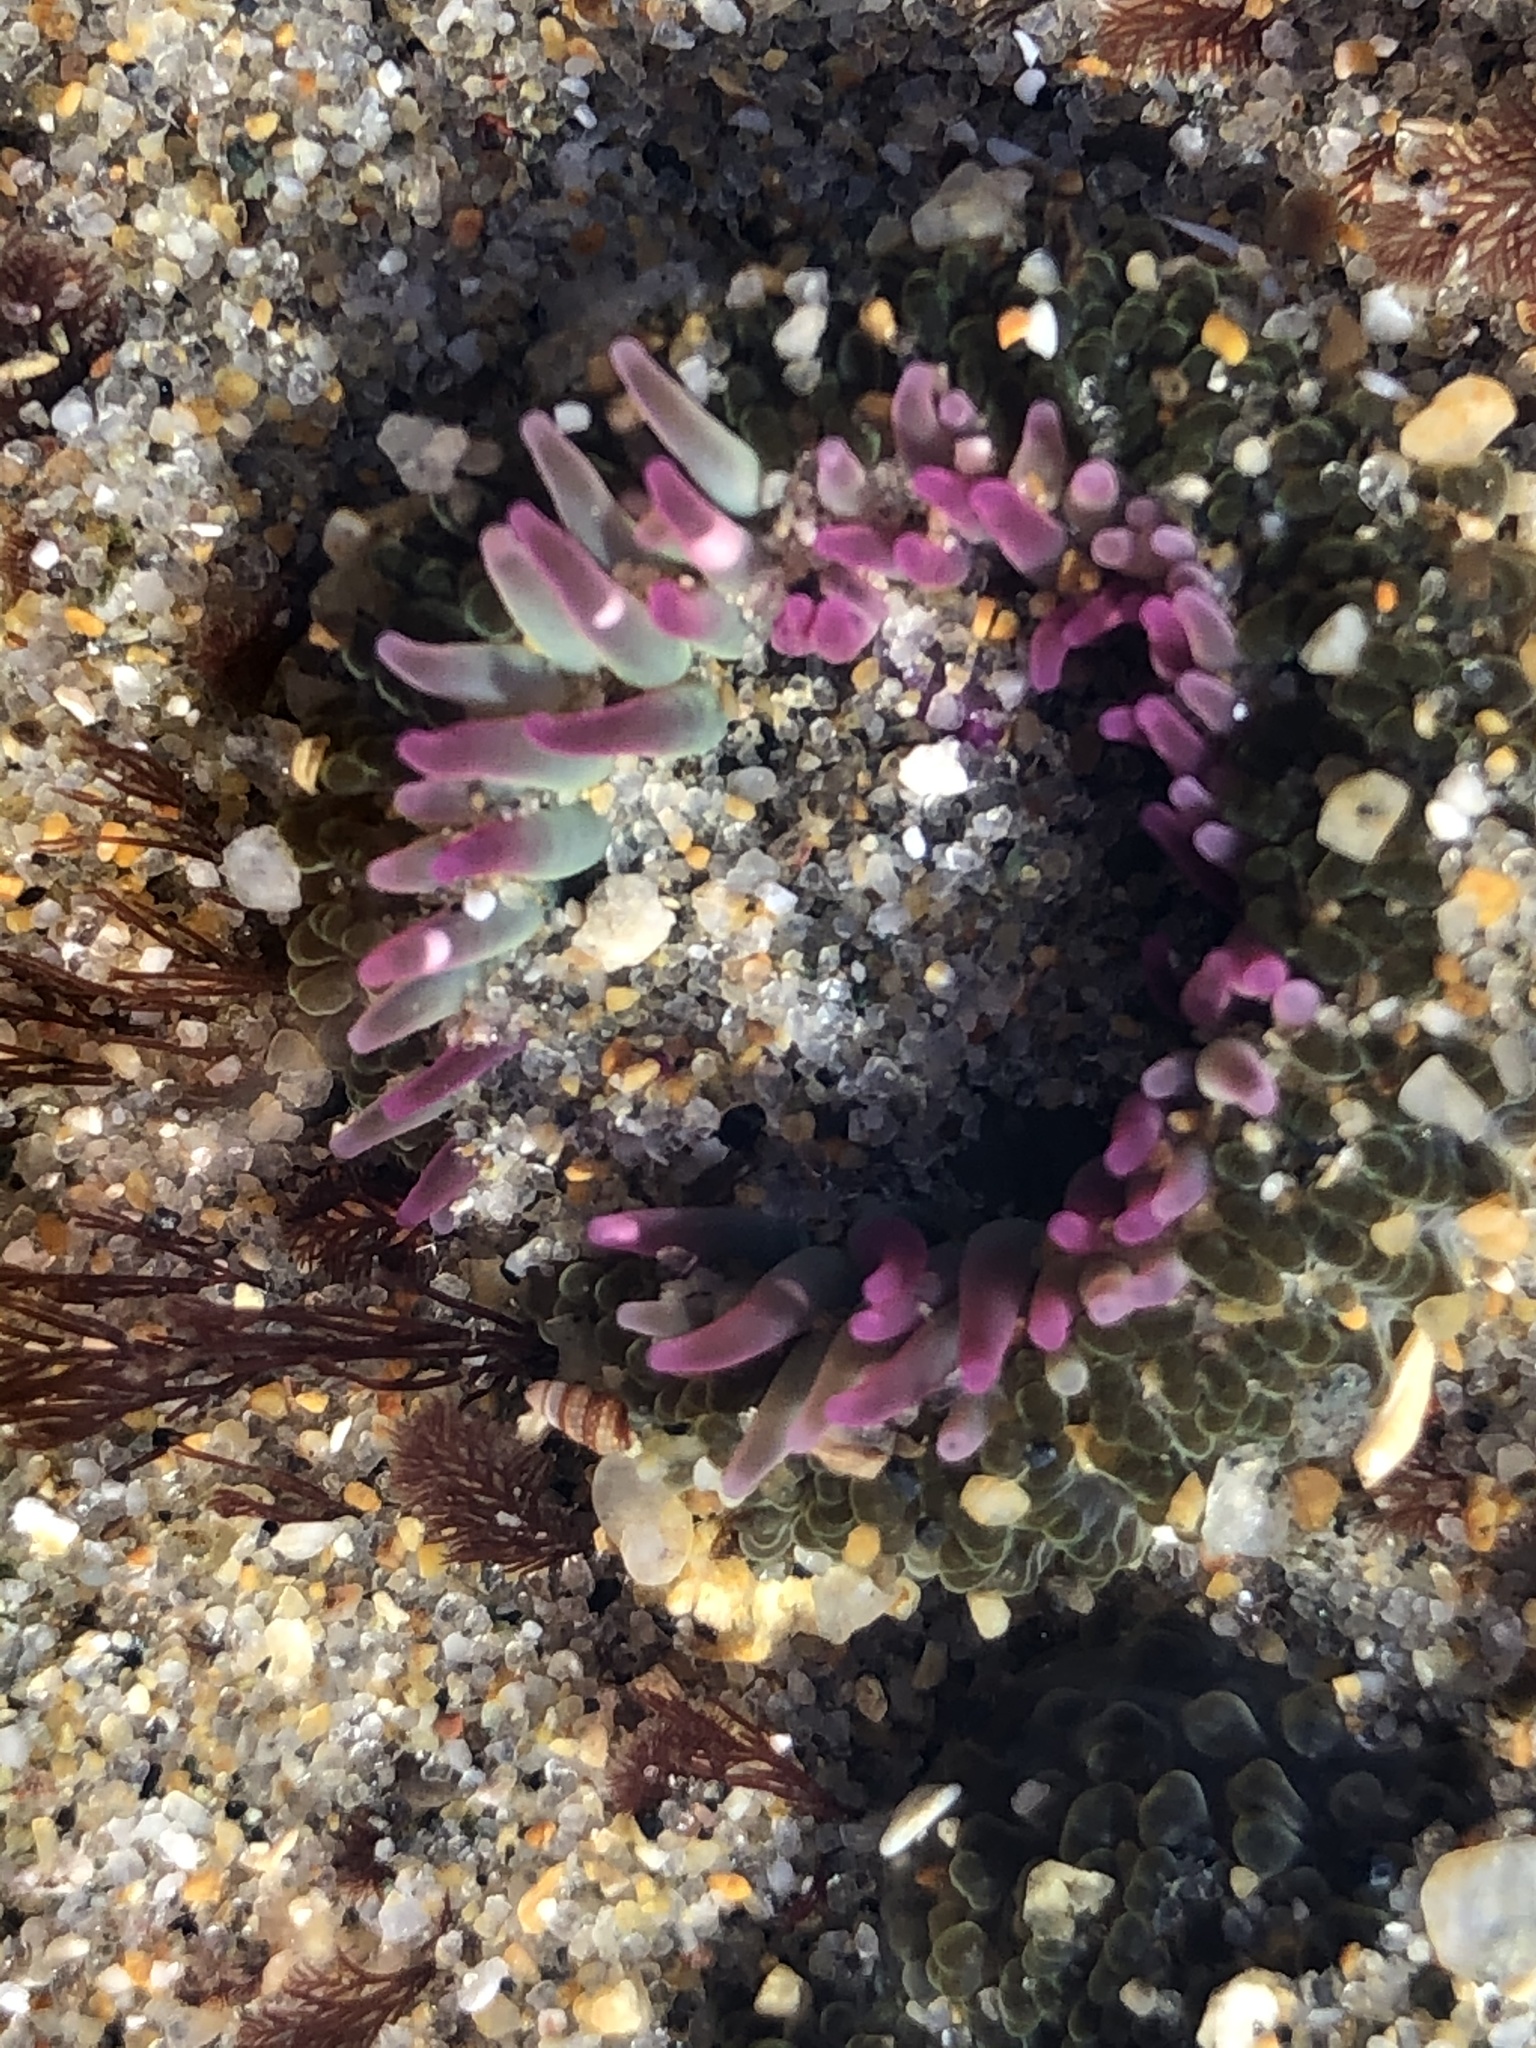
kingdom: Animalia
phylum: Cnidaria
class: Anthozoa
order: Actiniaria
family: Actiniidae
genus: Anthopleura
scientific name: Anthopleura elegantissima
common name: Clonal anemone
